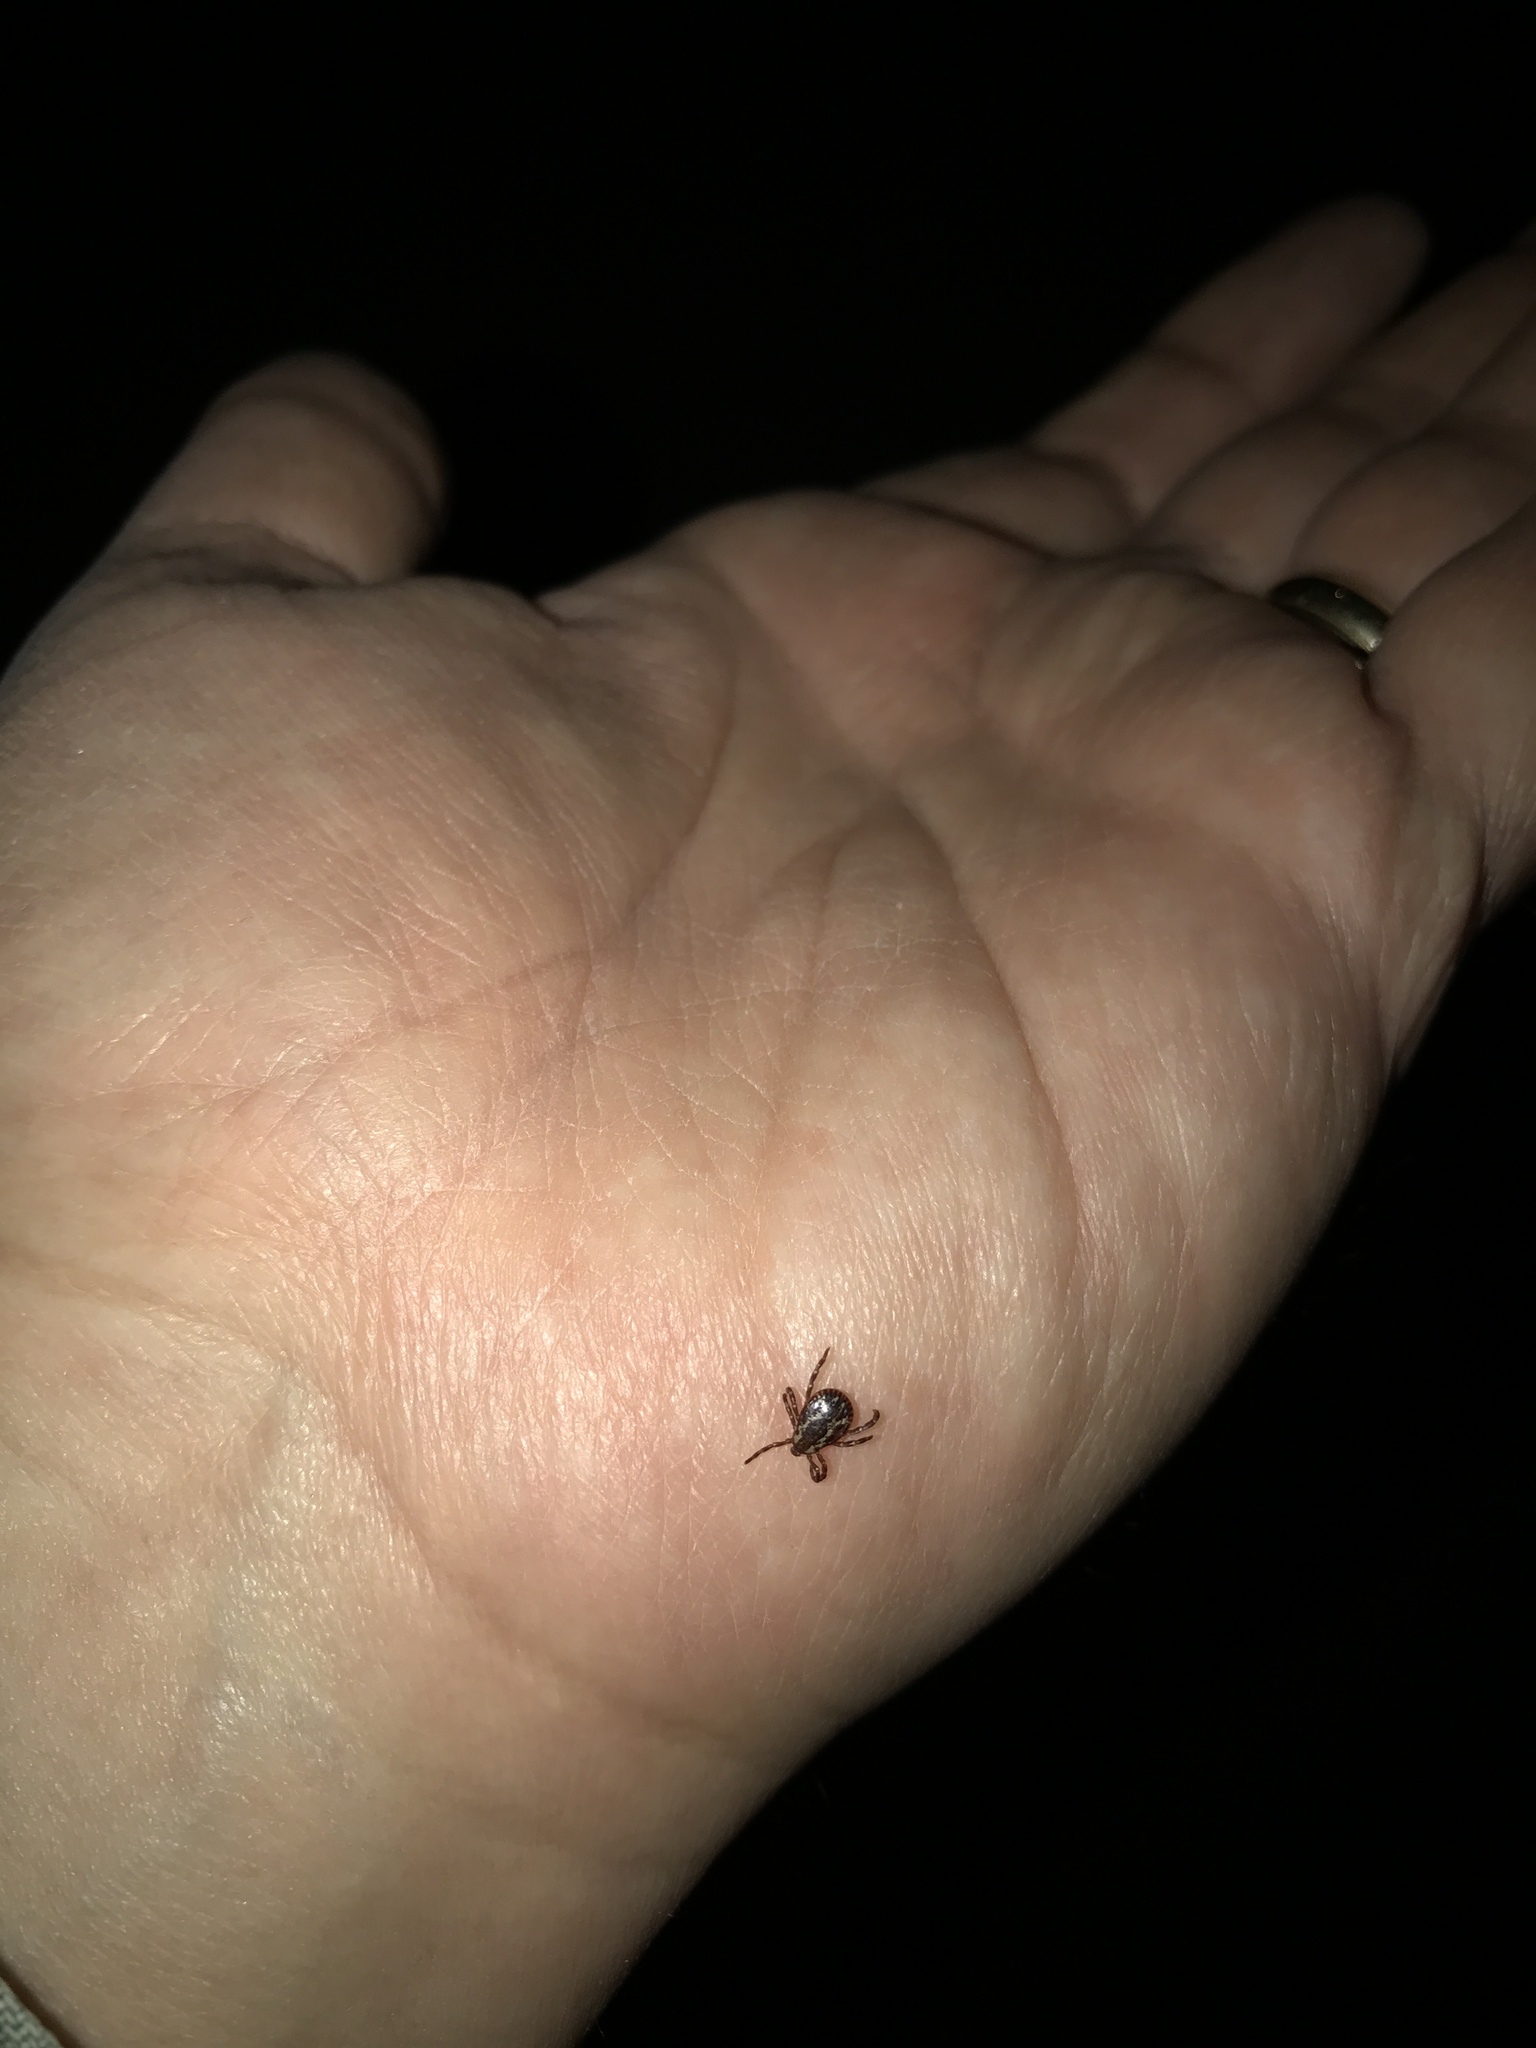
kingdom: Animalia
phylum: Arthropoda
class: Arachnida
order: Ixodida
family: Ixodidae
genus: Dermacentor
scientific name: Dermacentor variabilis
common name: American dog tick
